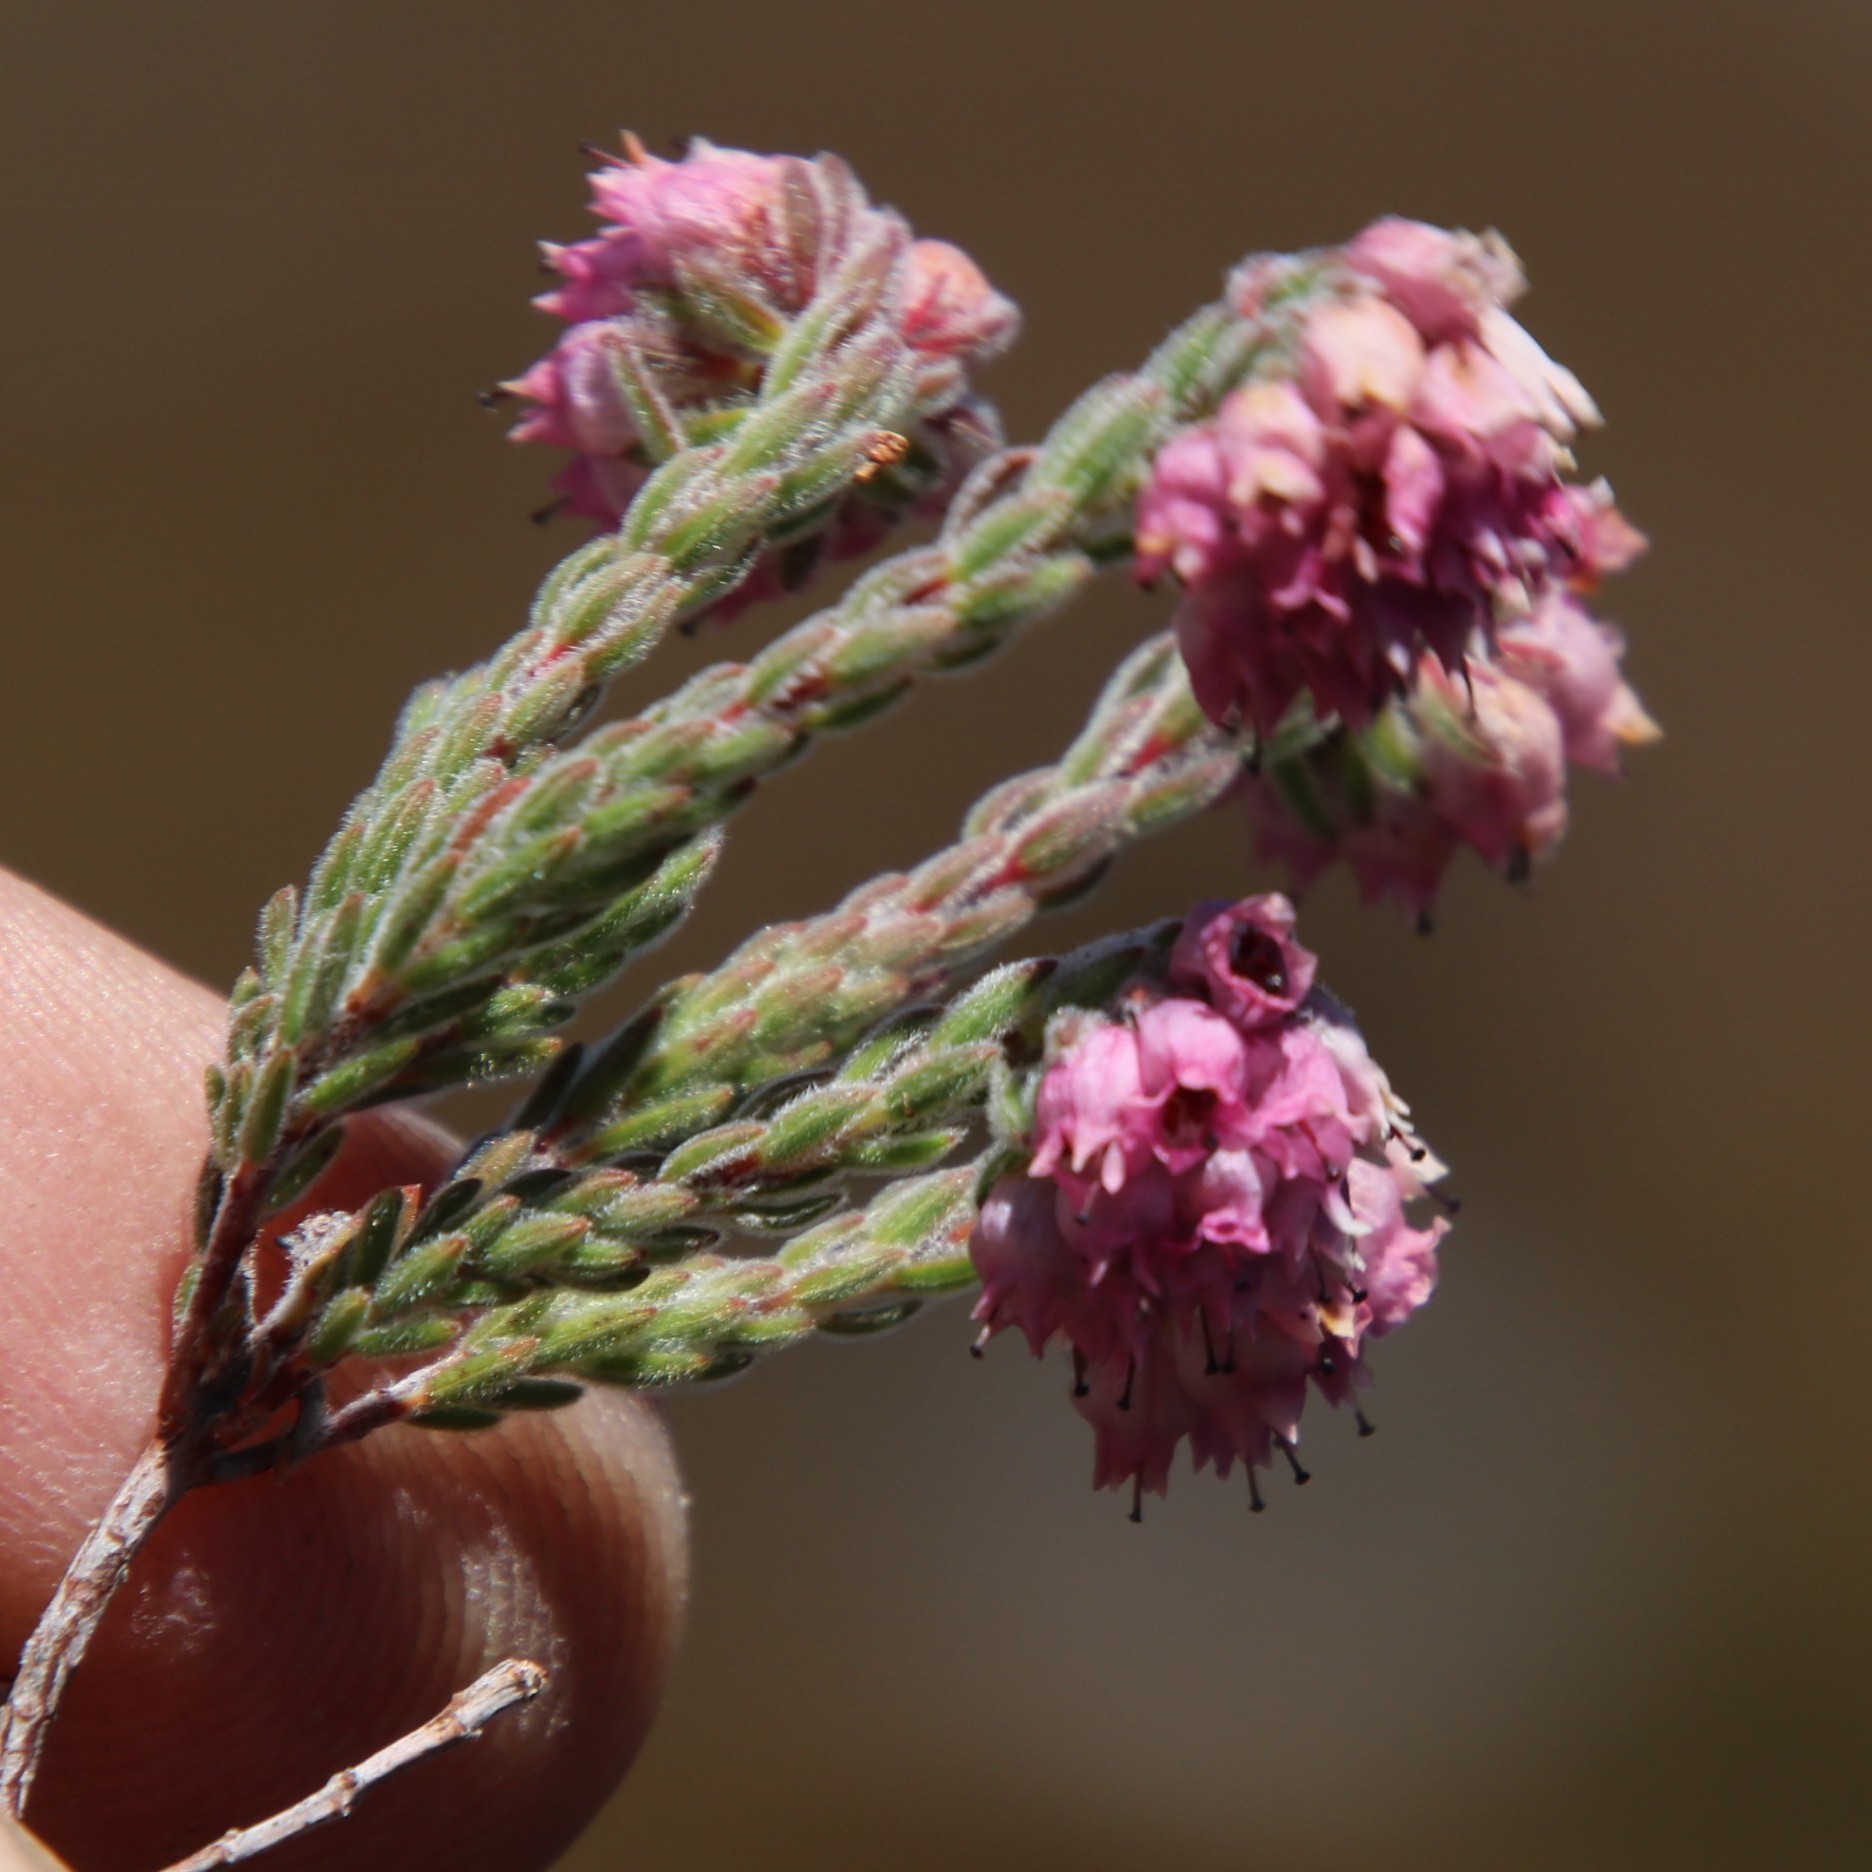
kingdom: Plantae
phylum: Tracheophyta
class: Magnoliopsida
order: Ericales
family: Ericaceae
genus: Erica
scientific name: Erica sphaerocephala
